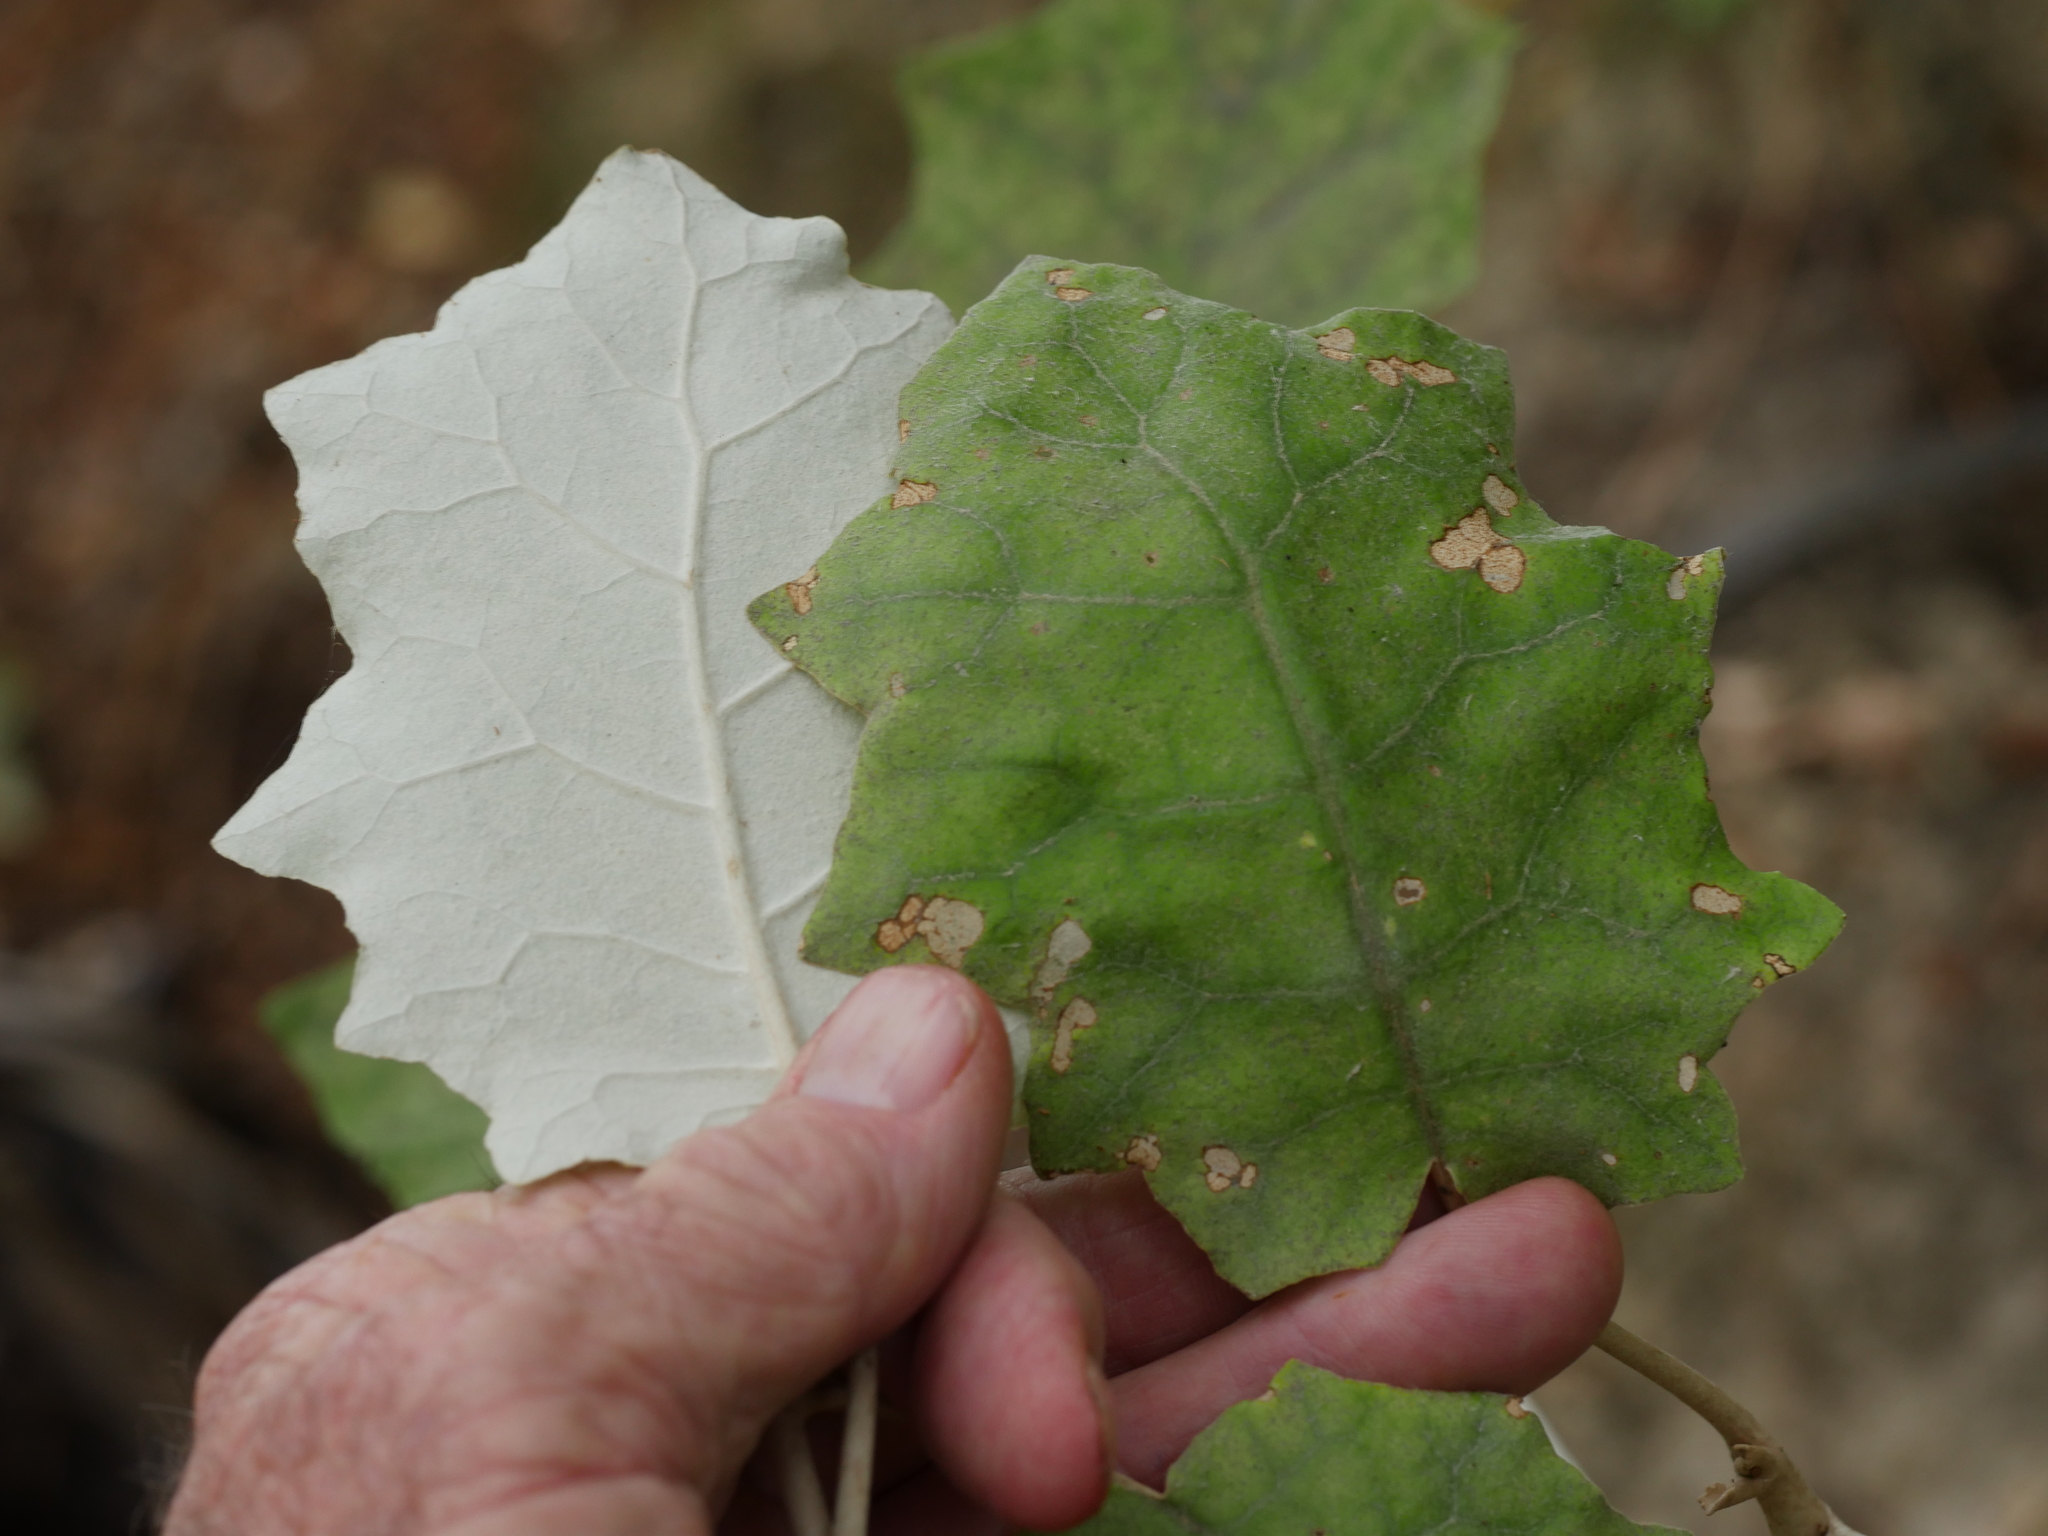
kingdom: Plantae
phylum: Tracheophyta
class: Magnoliopsida
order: Asterales
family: Asteraceae
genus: Brachyglottis
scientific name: Brachyglottis repanda
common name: Hedge ragwort
